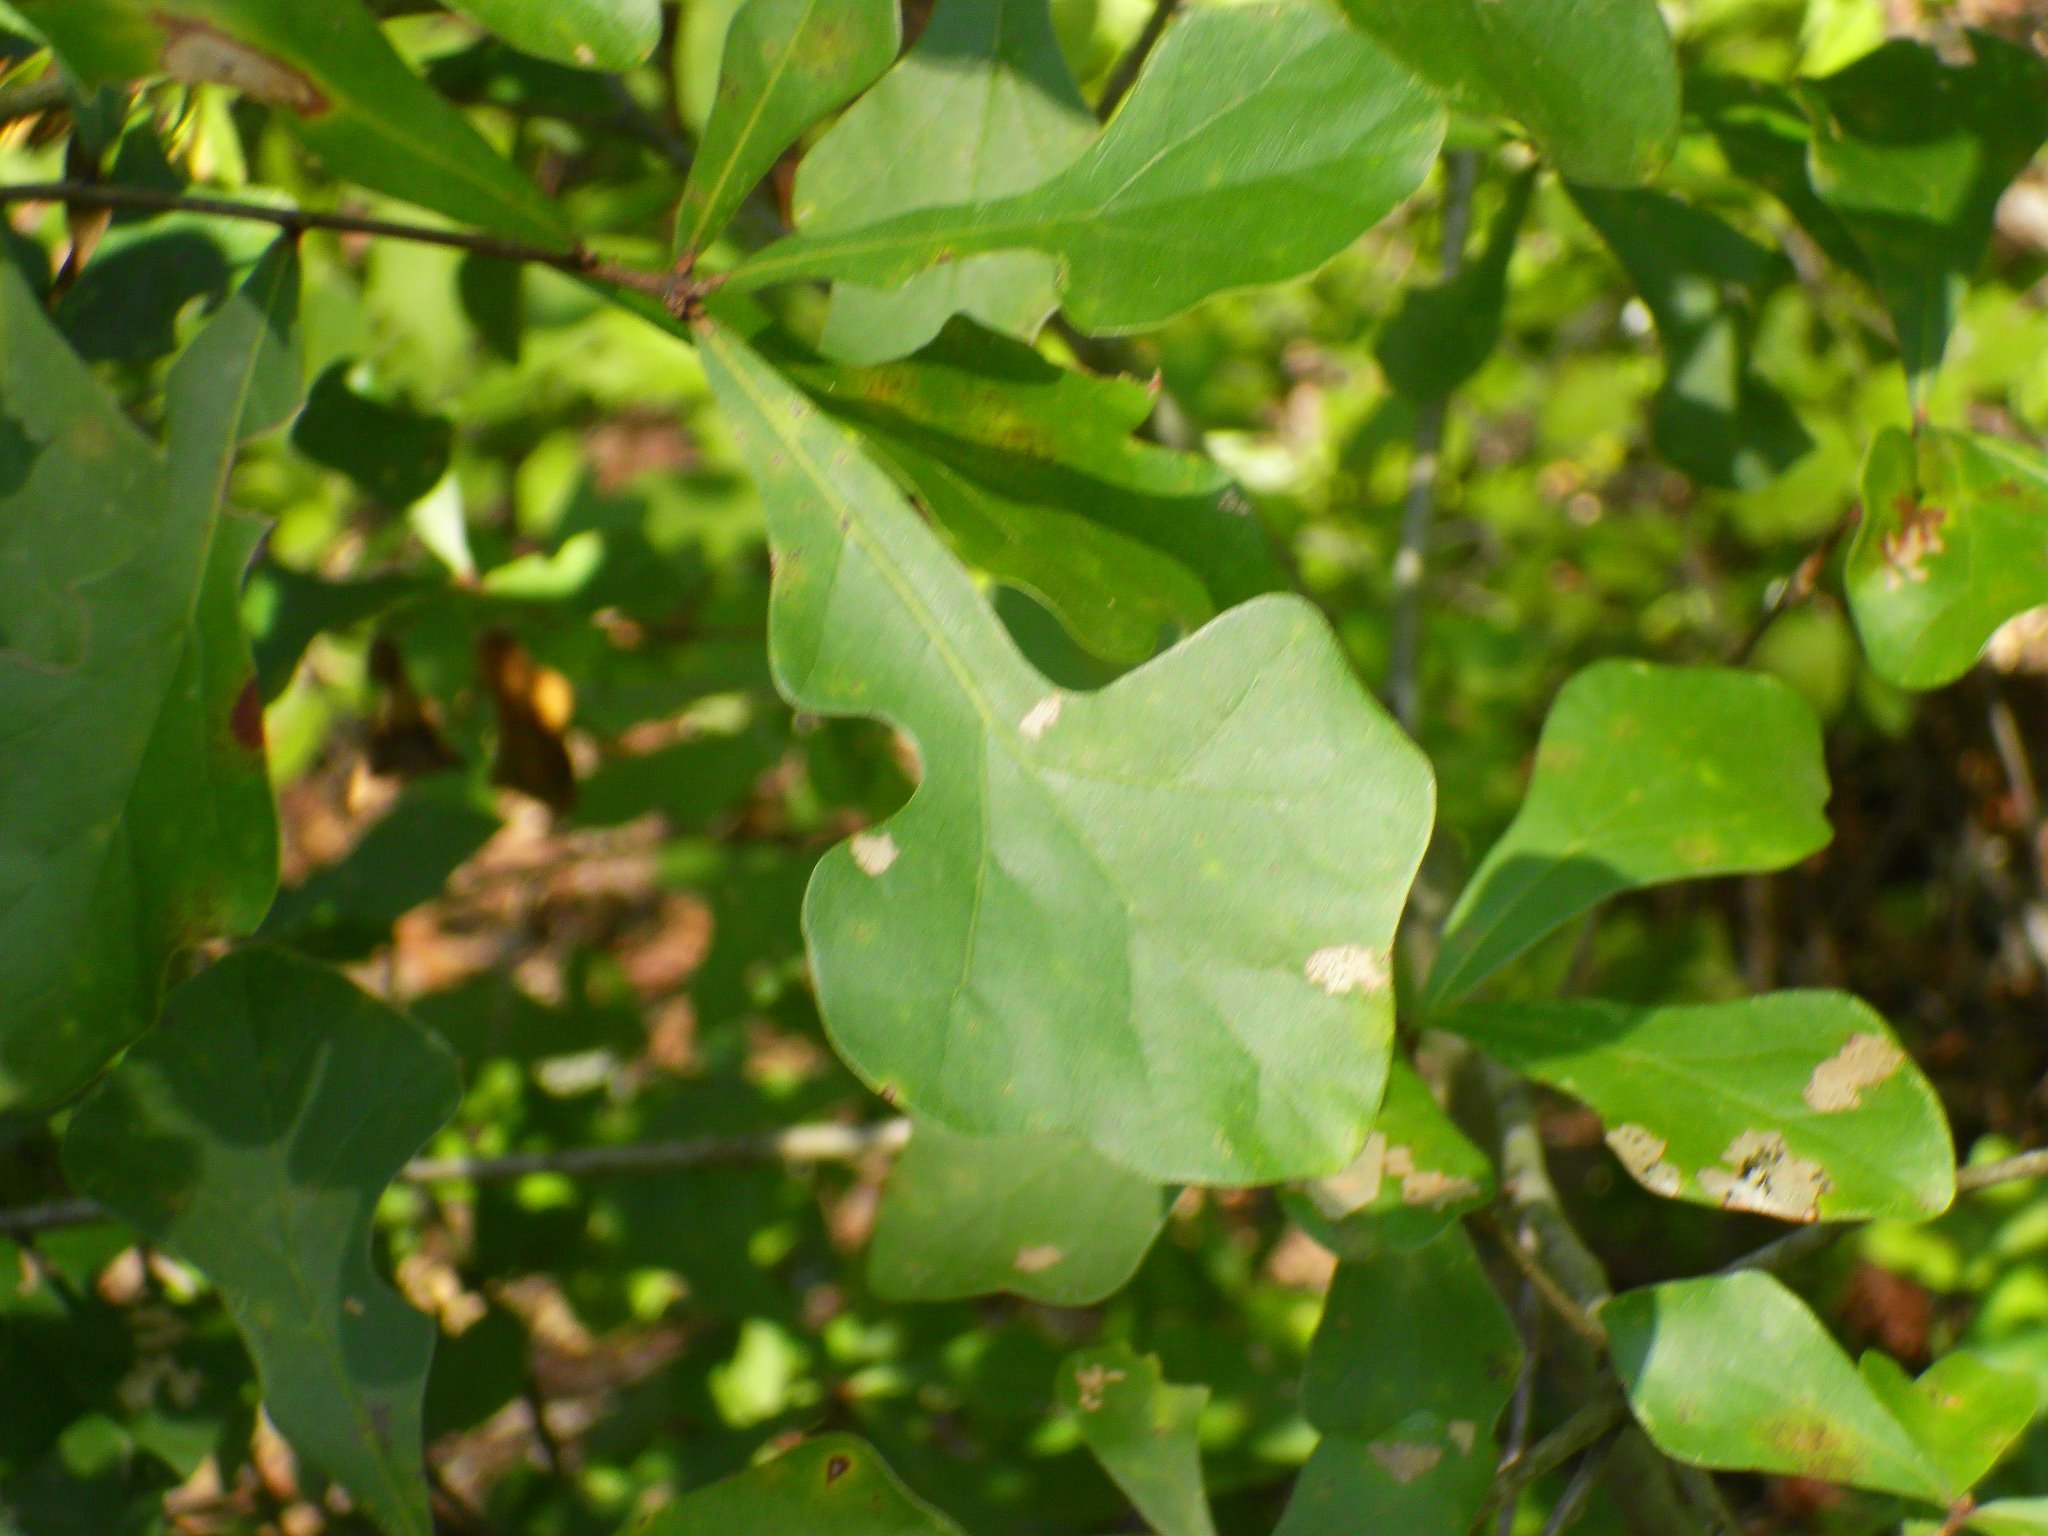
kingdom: Plantae
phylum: Tracheophyta
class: Magnoliopsida
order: Fagales
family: Fagaceae
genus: Quercus
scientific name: Quercus nigra
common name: Water oak
